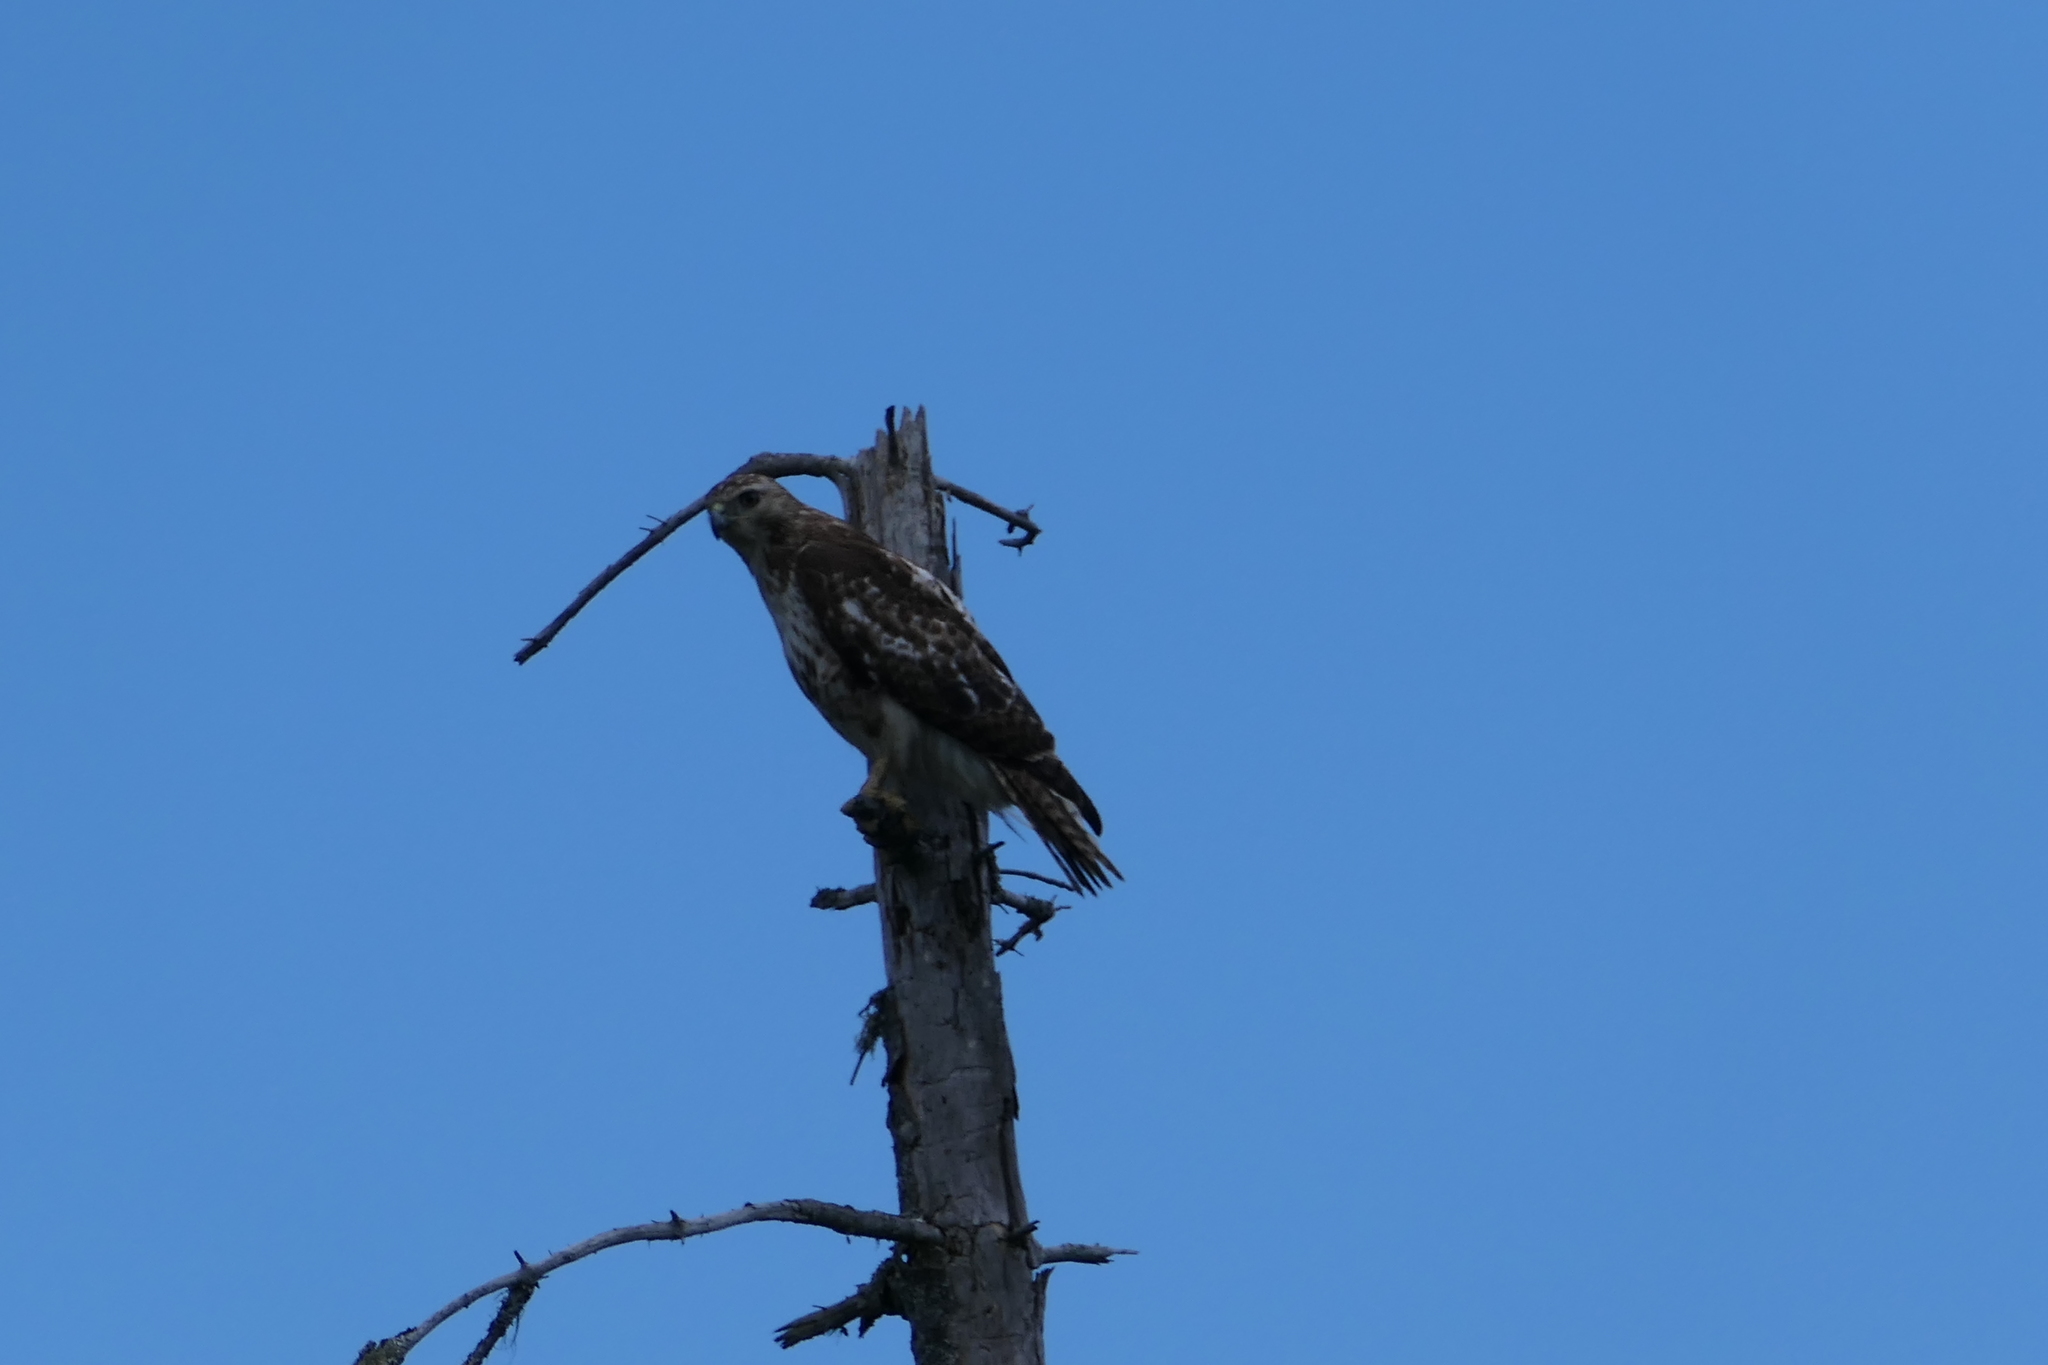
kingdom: Animalia
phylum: Chordata
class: Aves
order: Accipitriformes
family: Accipitridae
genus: Buteo
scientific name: Buteo jamaicensis
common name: Red-tailed hawk
